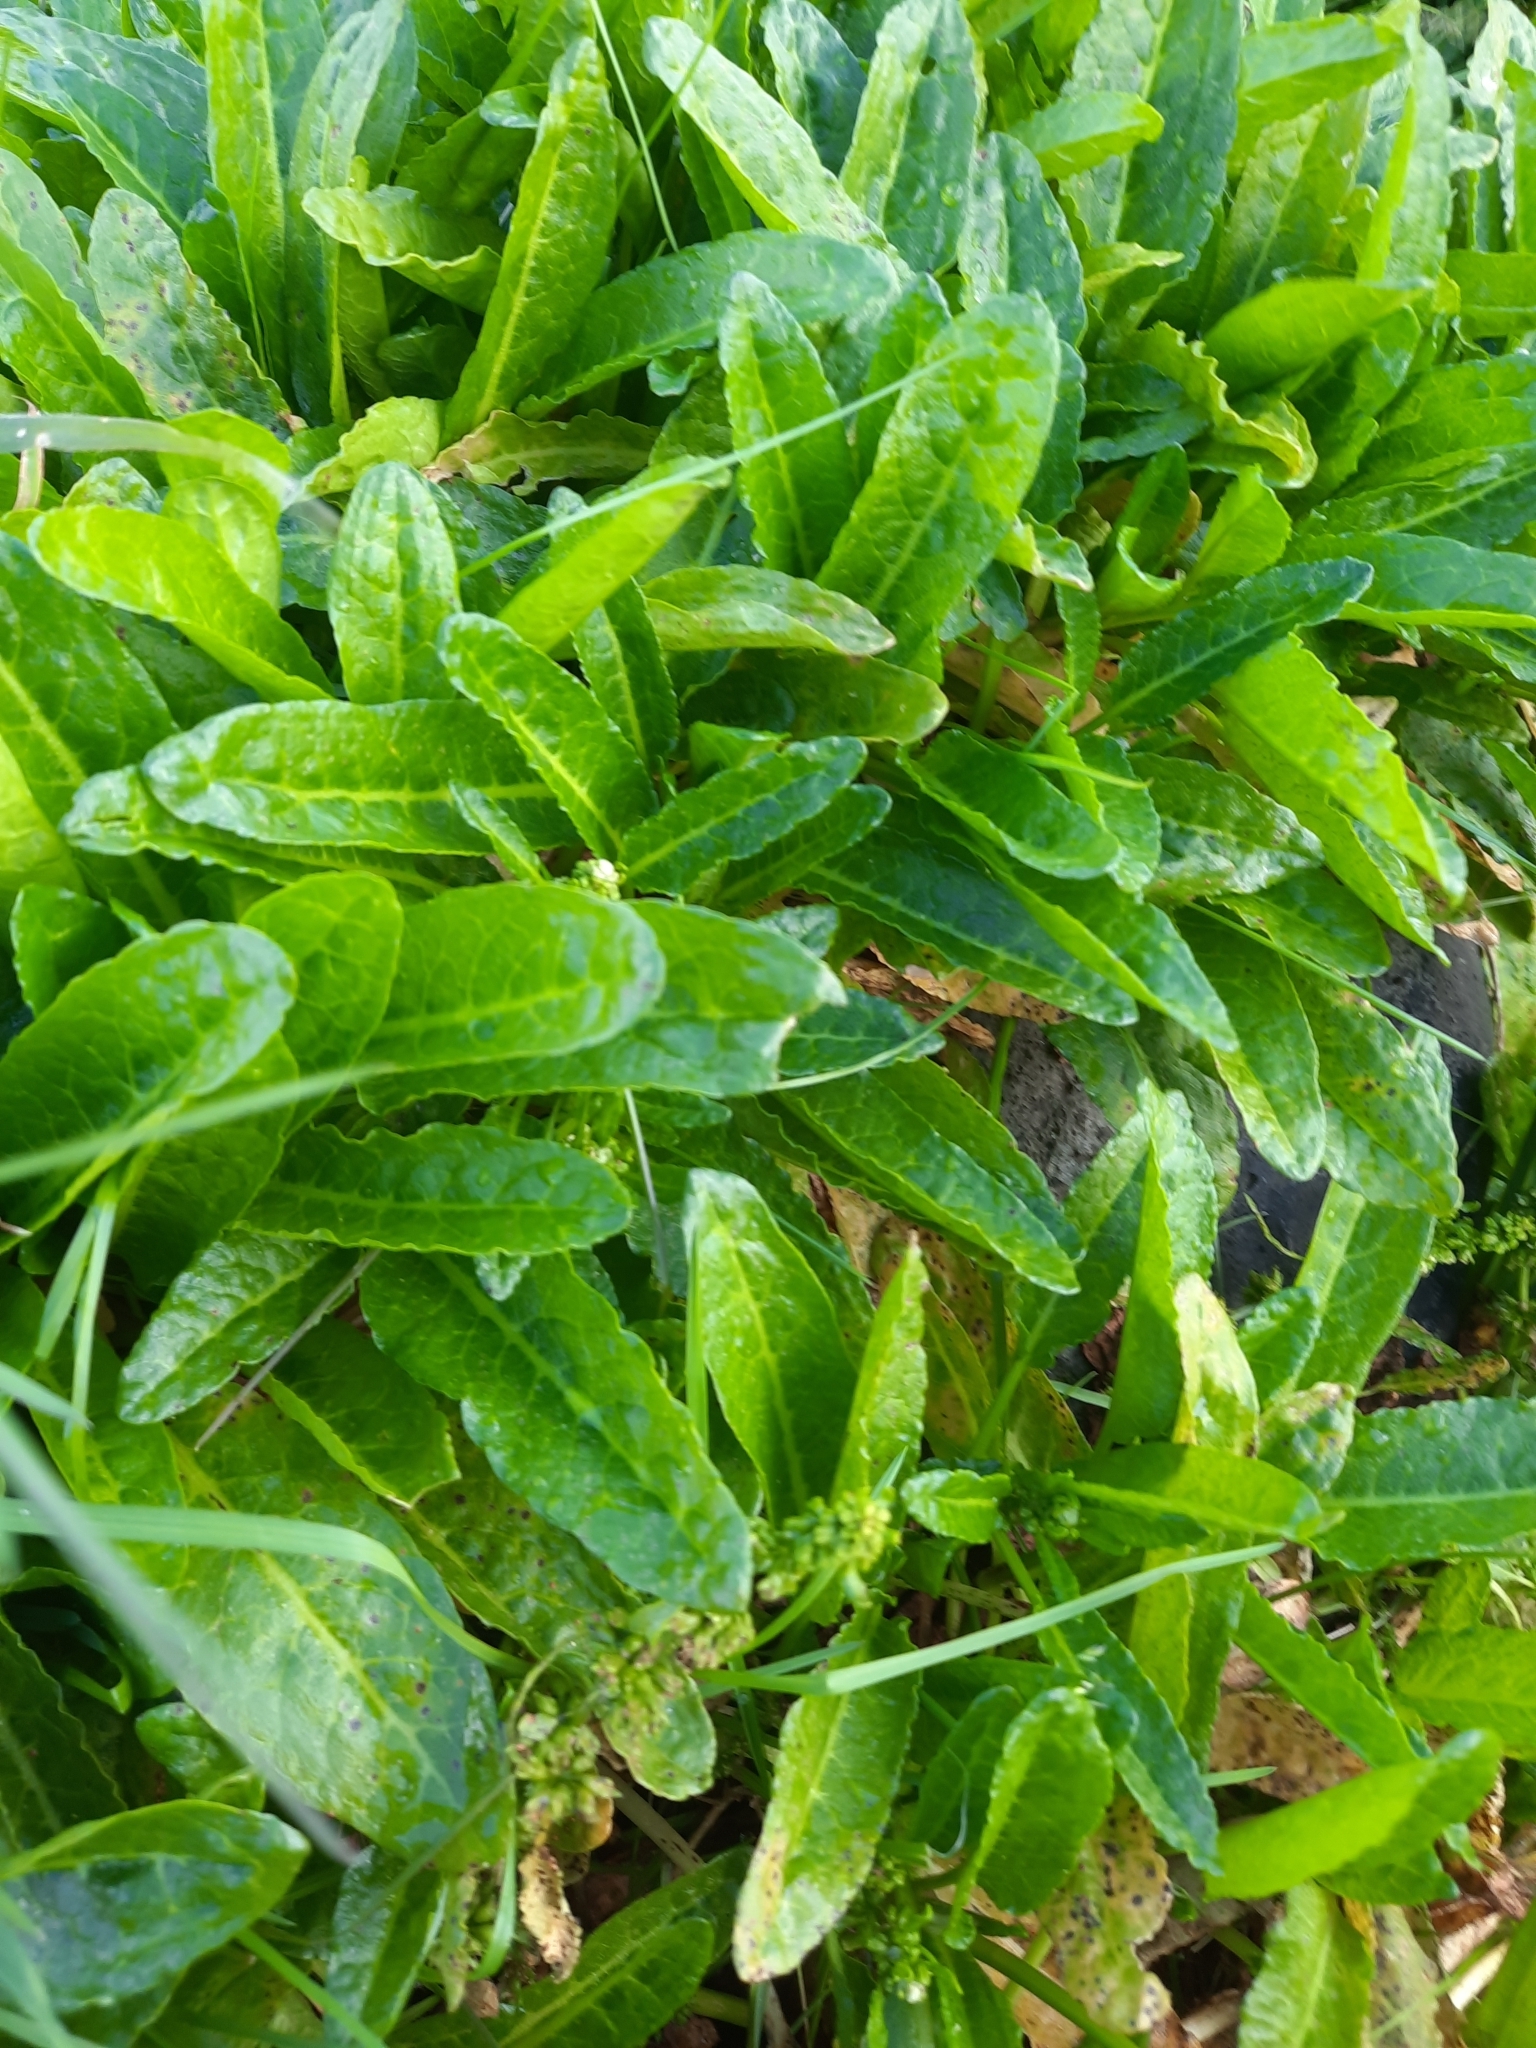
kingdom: Plantae
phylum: Tracheophyta
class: Magnoliopsida
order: Caryophyllales
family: Polygonaceae
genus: Rumex
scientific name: Rumex neglectus
